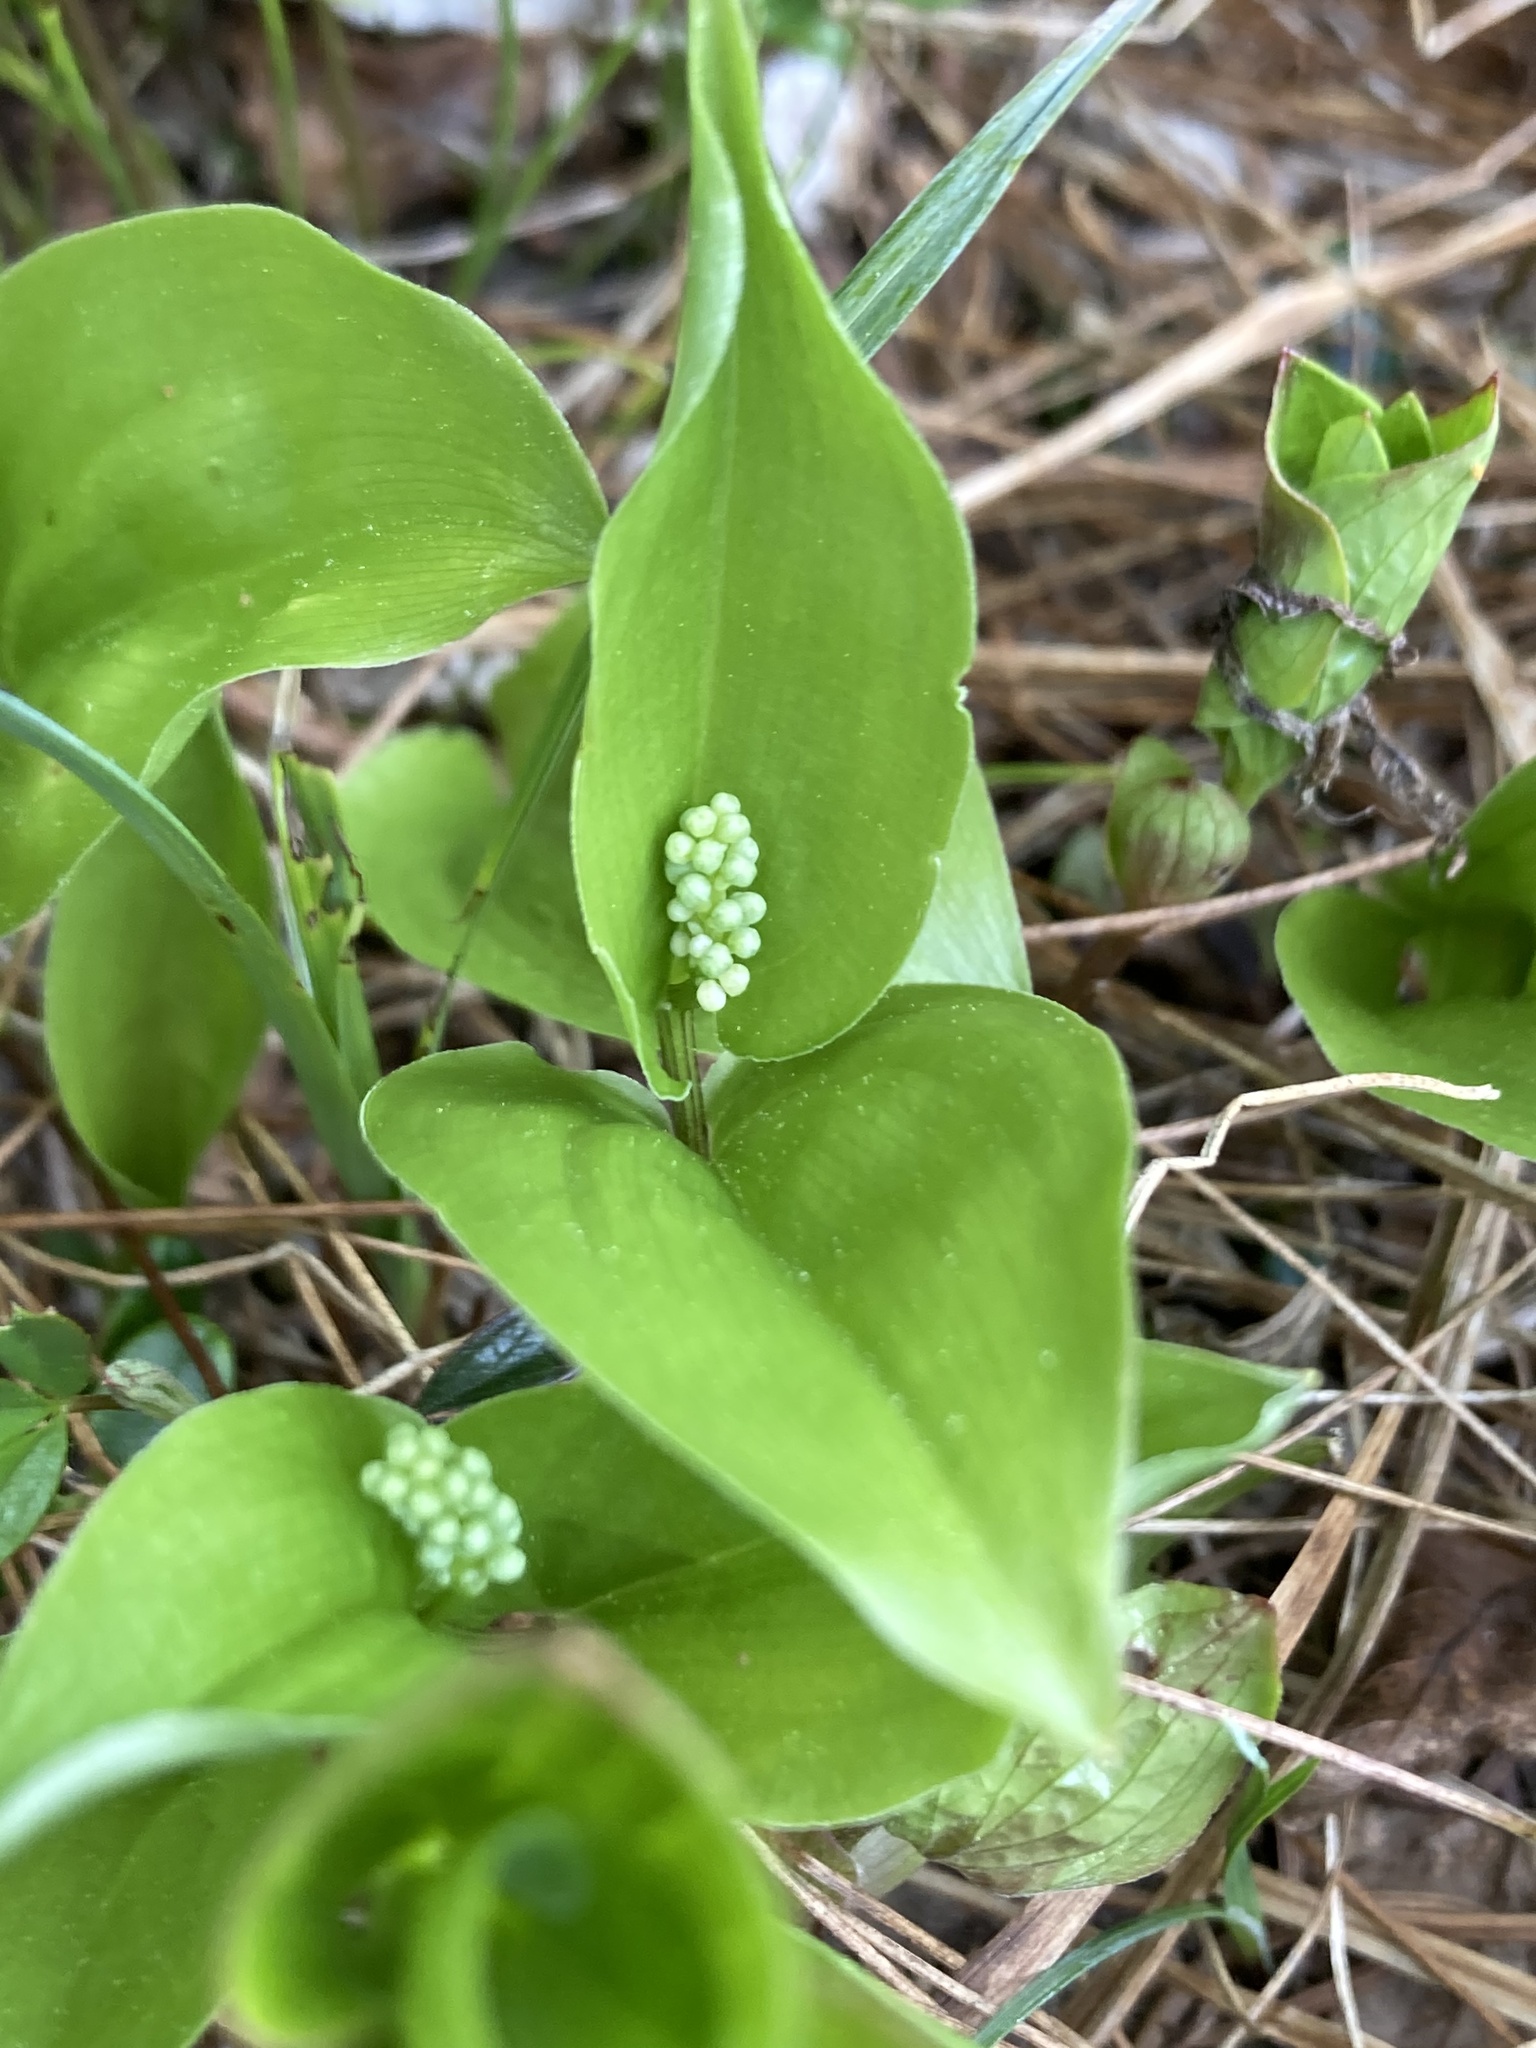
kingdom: Plantae
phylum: Tracheophyta
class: Liliopsida
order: Asparagales
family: Asparagaceae
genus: Maianthemum
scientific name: Maianthemum canadense
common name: False lily-of-the-valley
